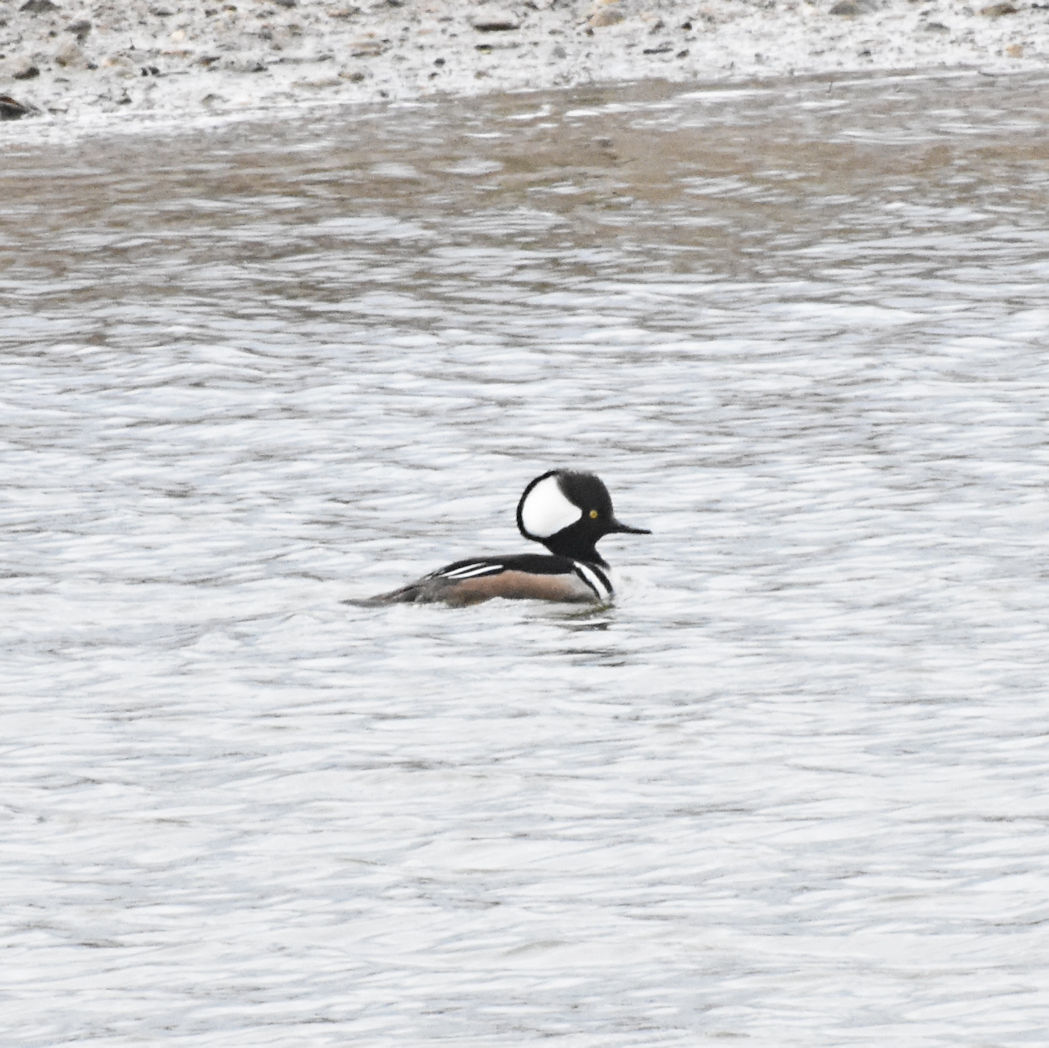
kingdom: Animalia
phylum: Chordata
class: Aves
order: Anseriformes
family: Anatidae
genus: Lophodytes
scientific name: Lophodytes cucullatus
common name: Hooded merganser
